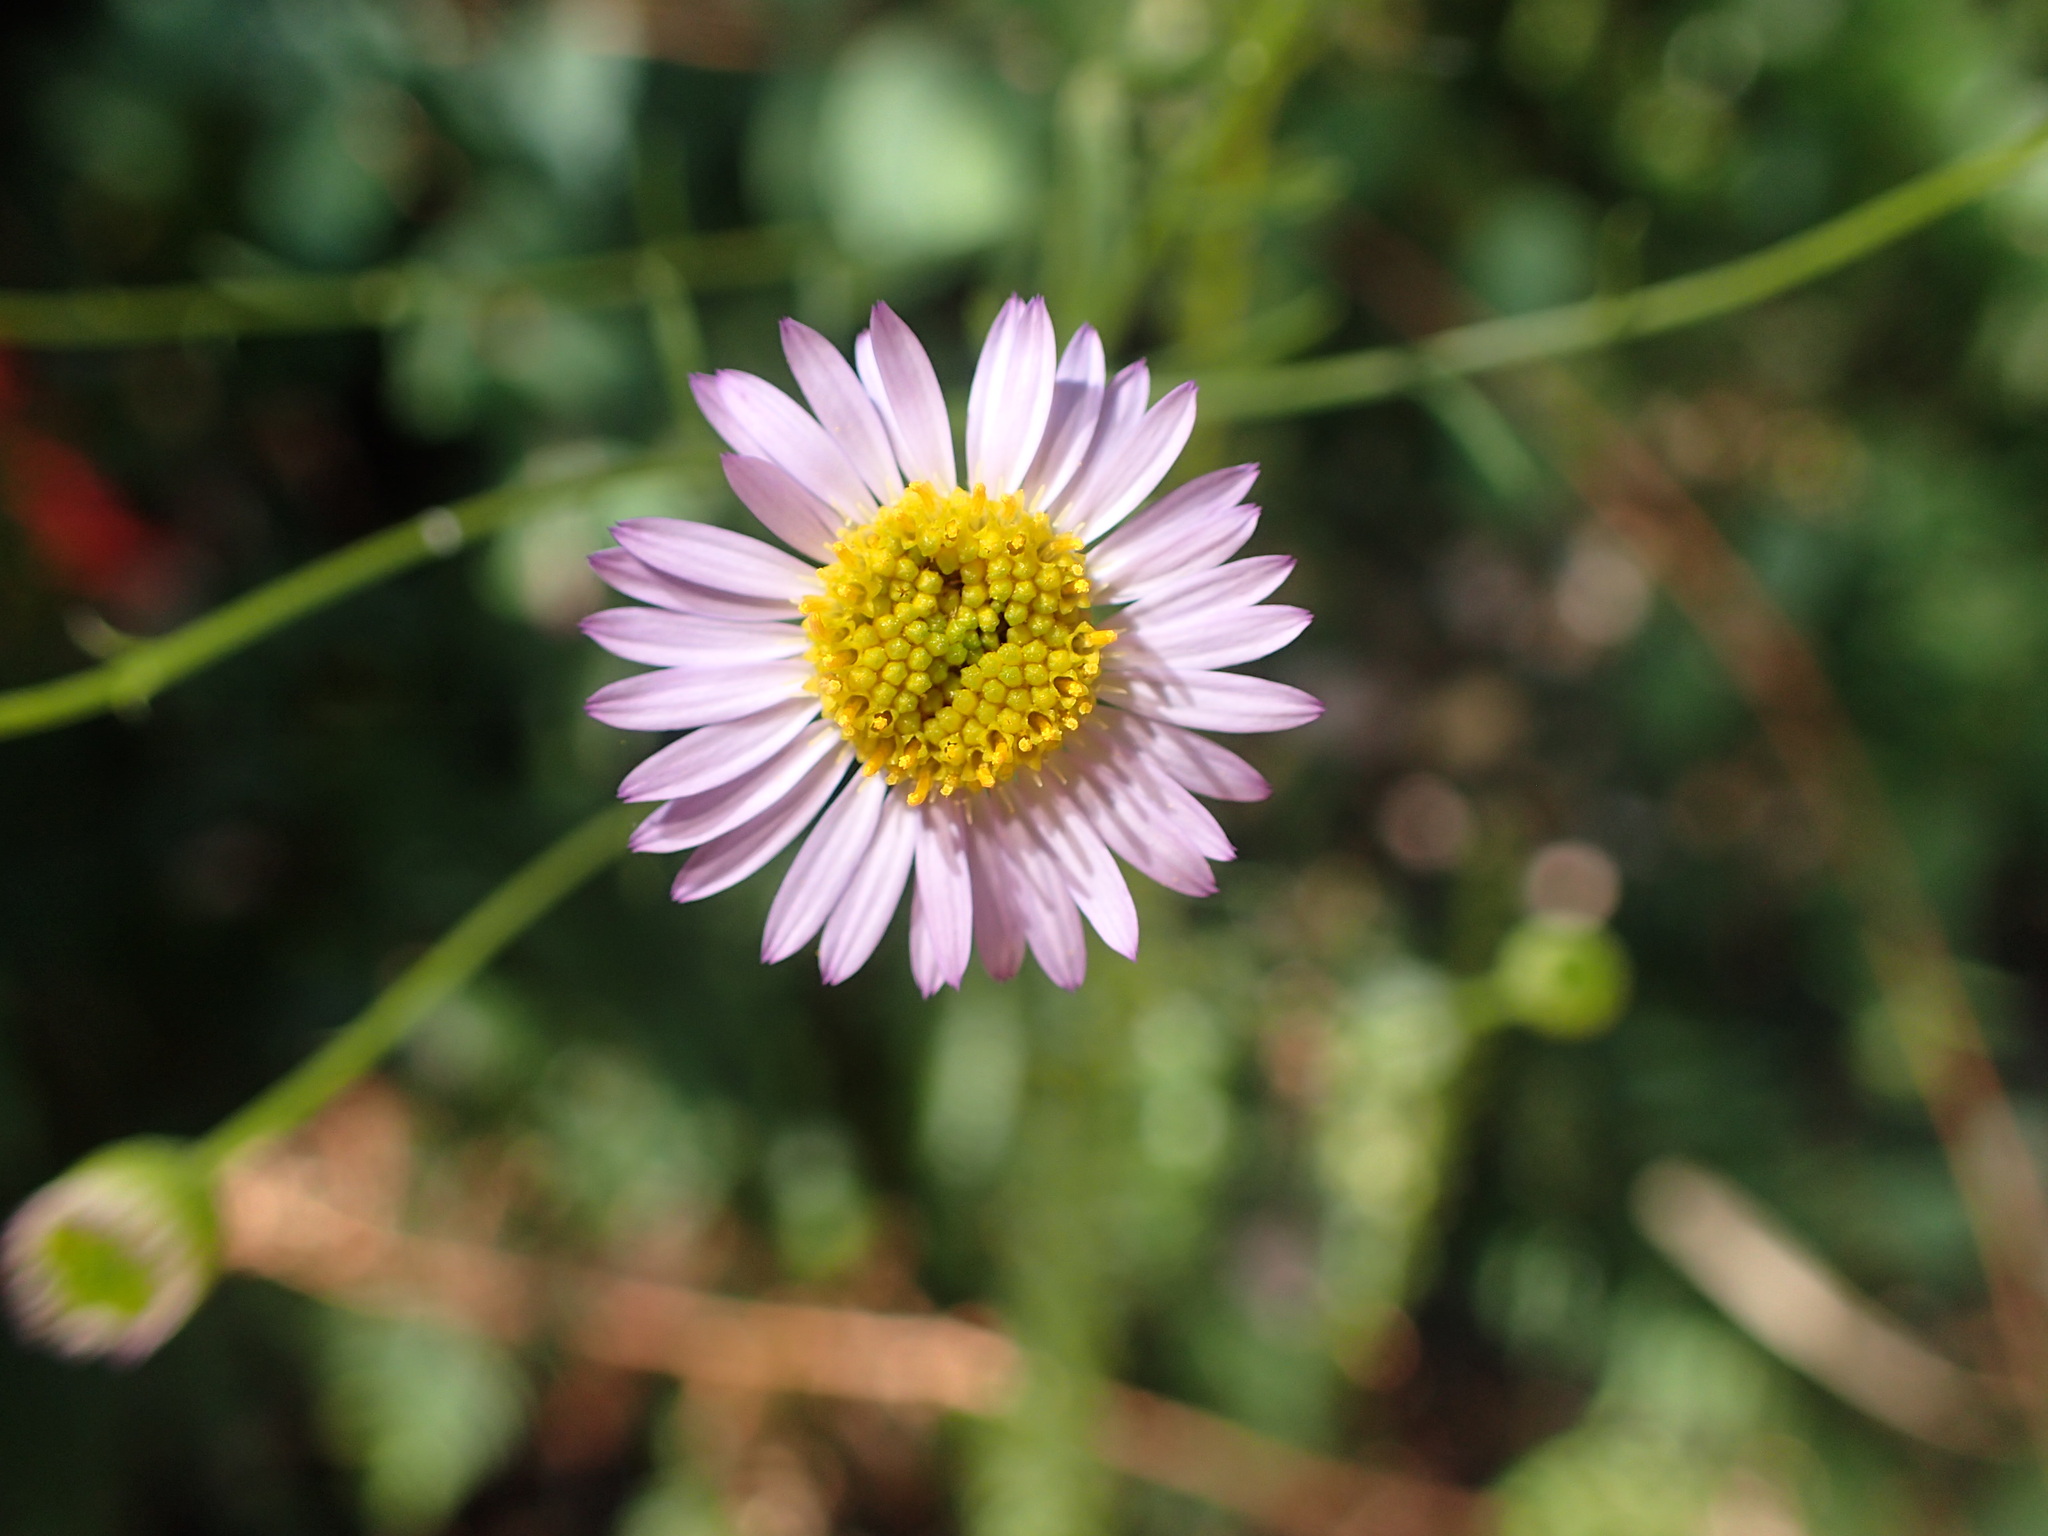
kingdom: Plantae
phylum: Tracheophyta
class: Magnoliopsida
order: Asterales
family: Asteraceae
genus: Erigeron
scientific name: Erigeron foliosus
